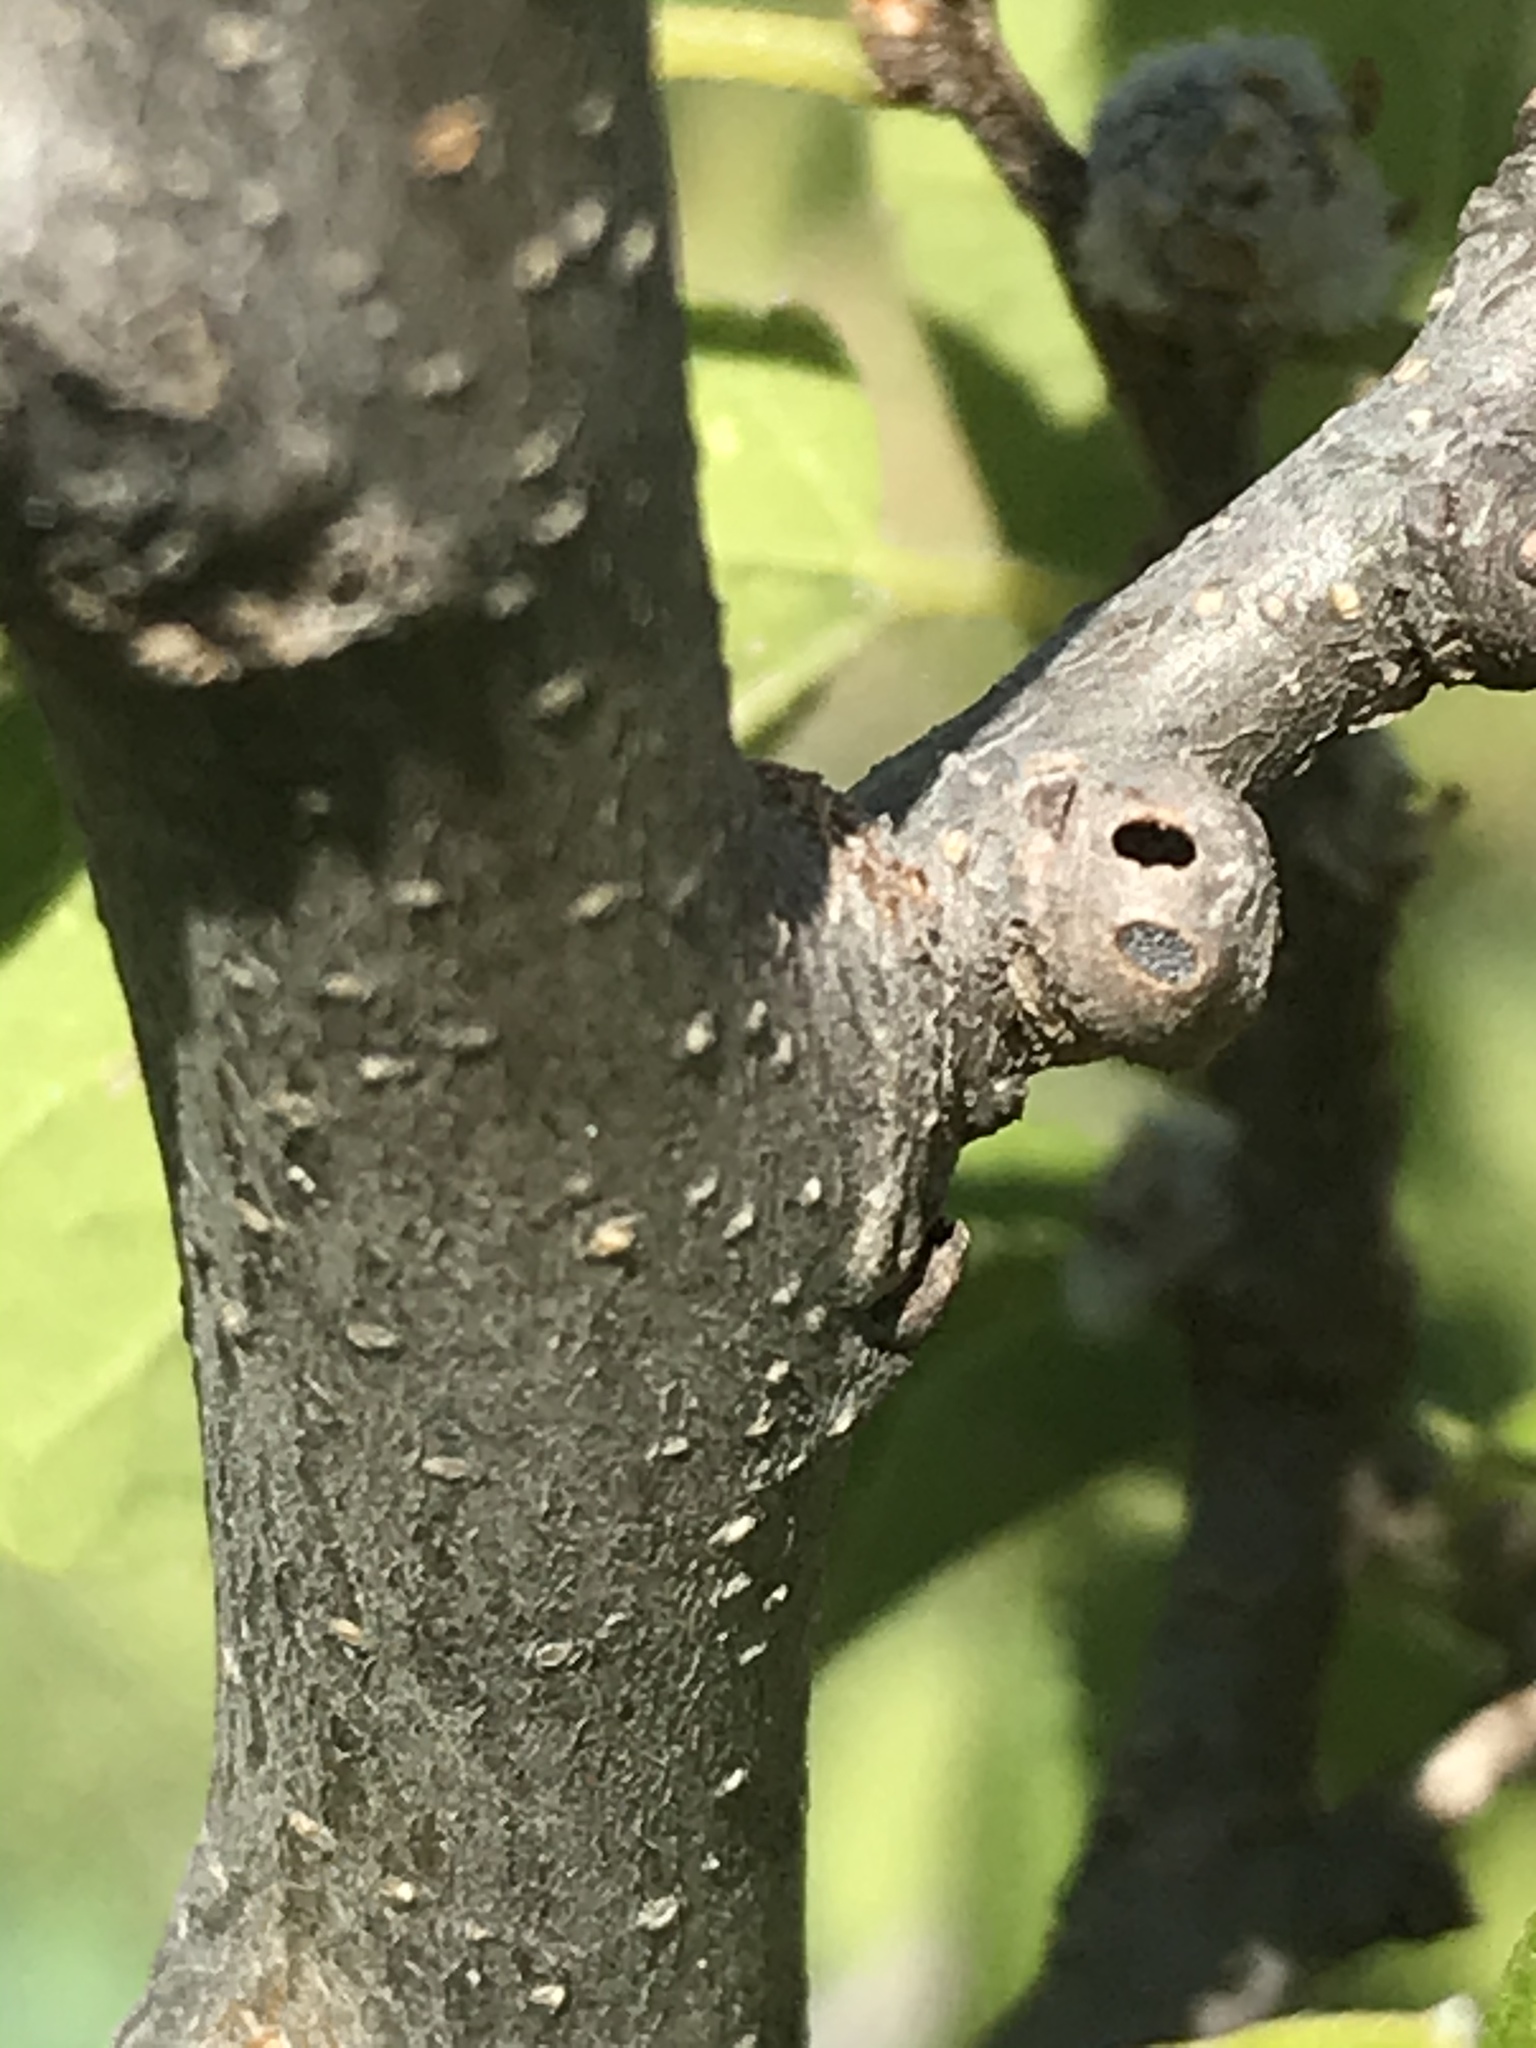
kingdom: Animalia
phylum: Arthropoda
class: Insecta
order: Hemiptera
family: Aphalaridae
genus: Pachypsylla
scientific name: Pachypsylla celtidisgemma
